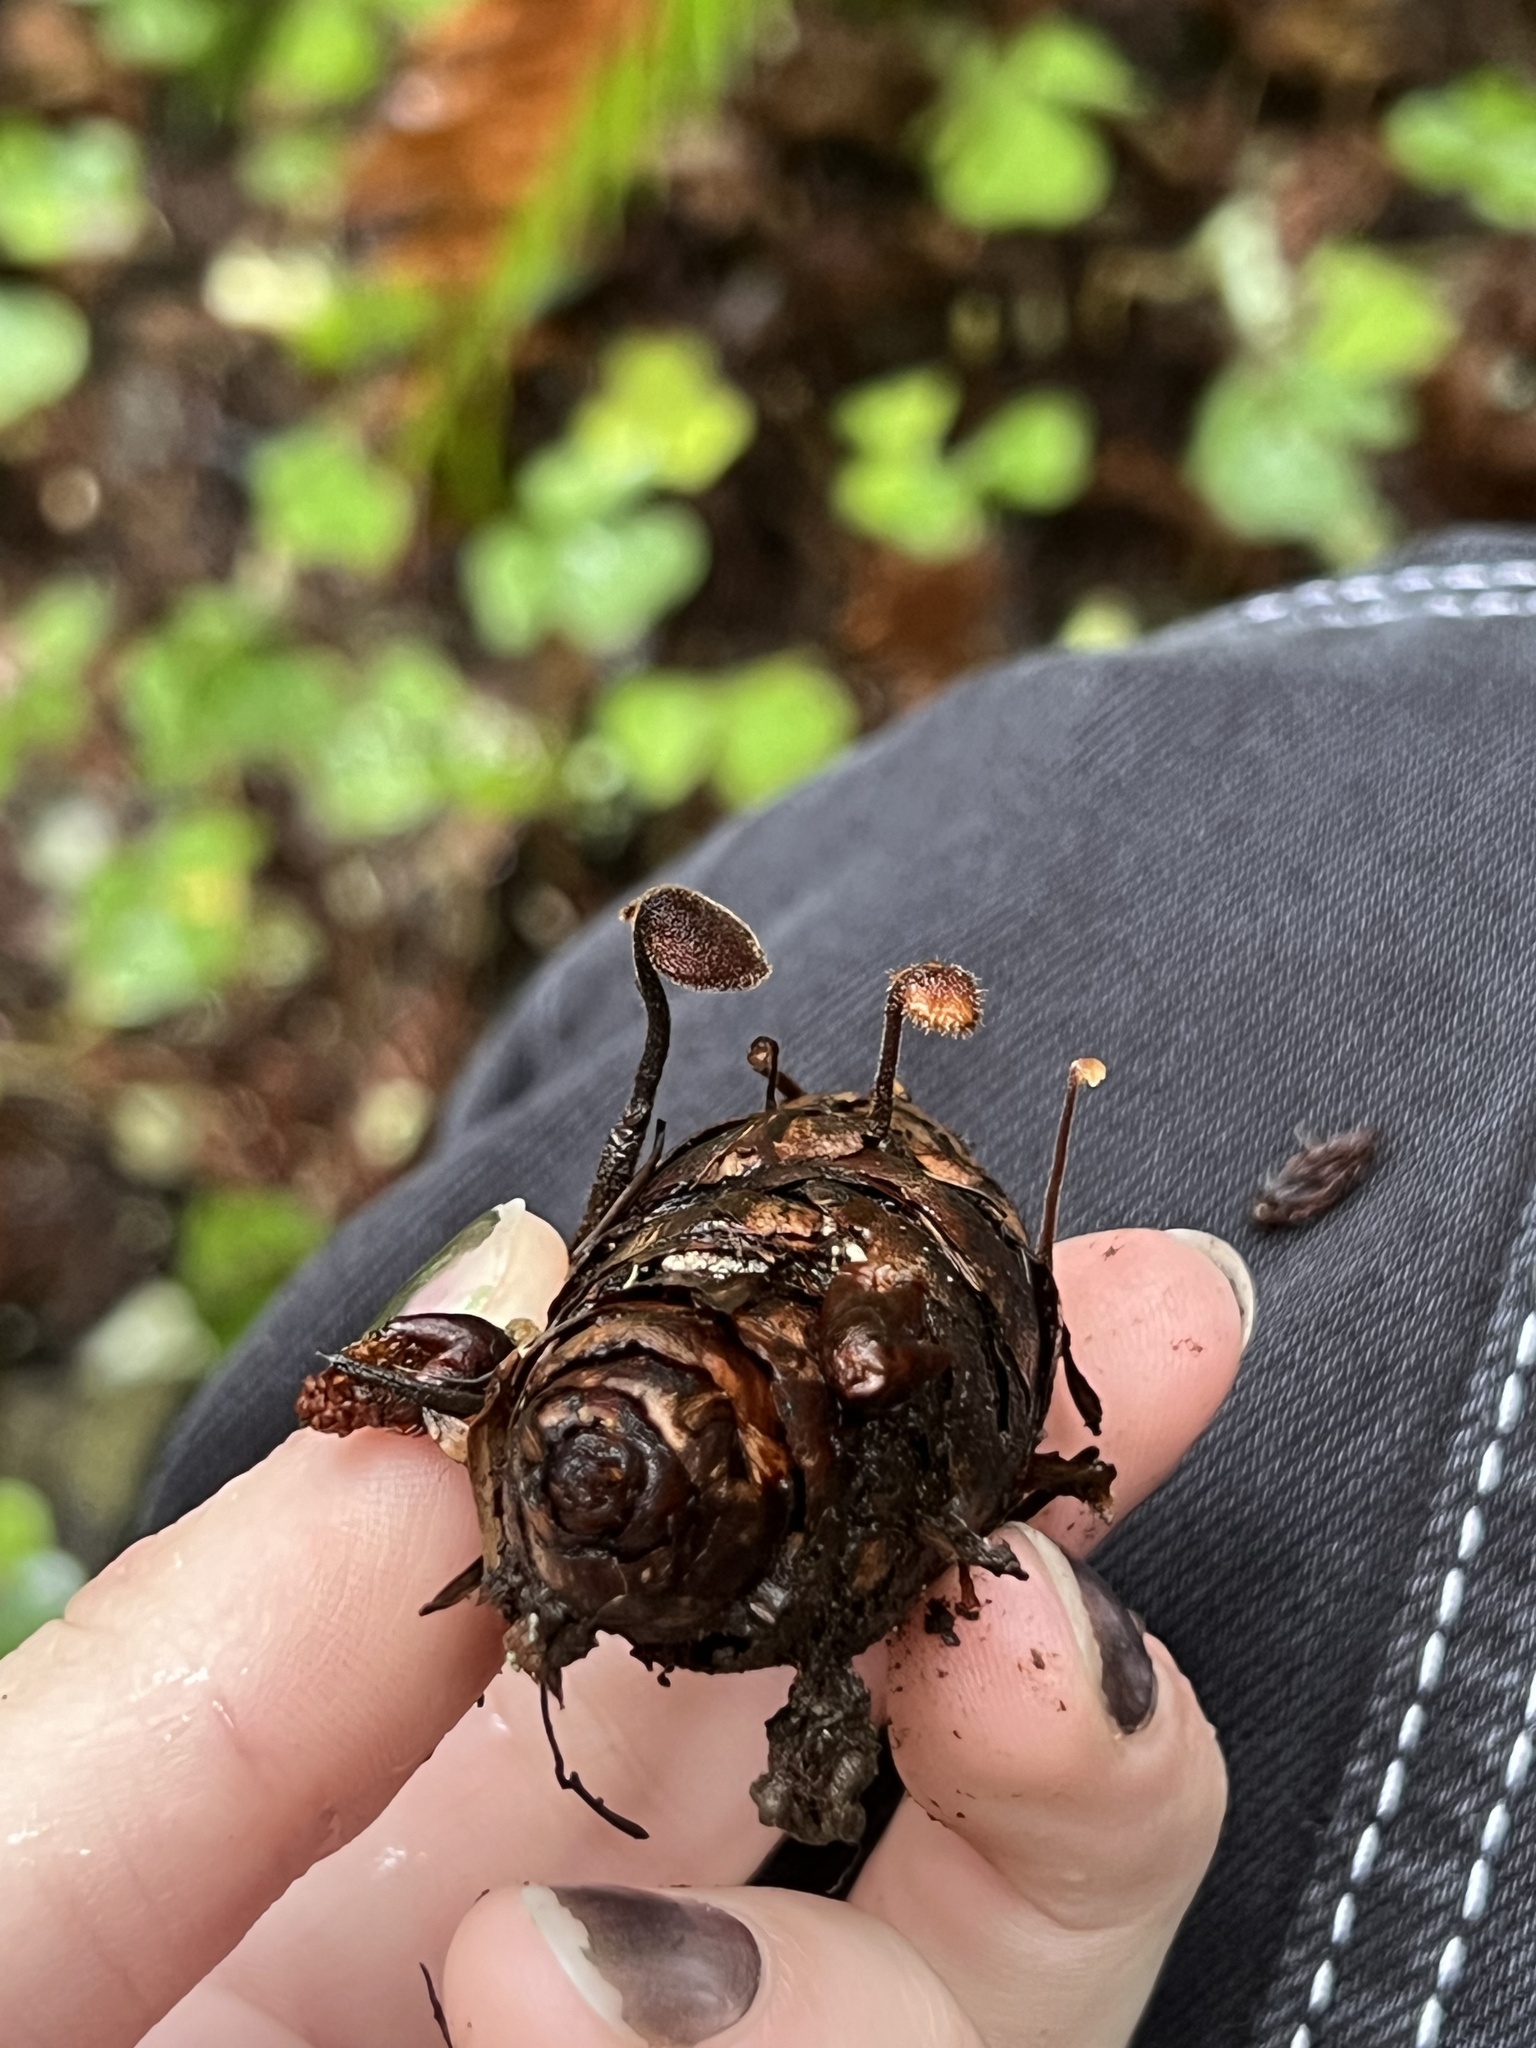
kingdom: Fungi
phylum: Basidiomycota
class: Agaricomycetes
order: Russulales
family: Auriscalpiaceae
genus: Auriscalpium
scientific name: Auriscalpium vulgare
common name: Earpick fungus
